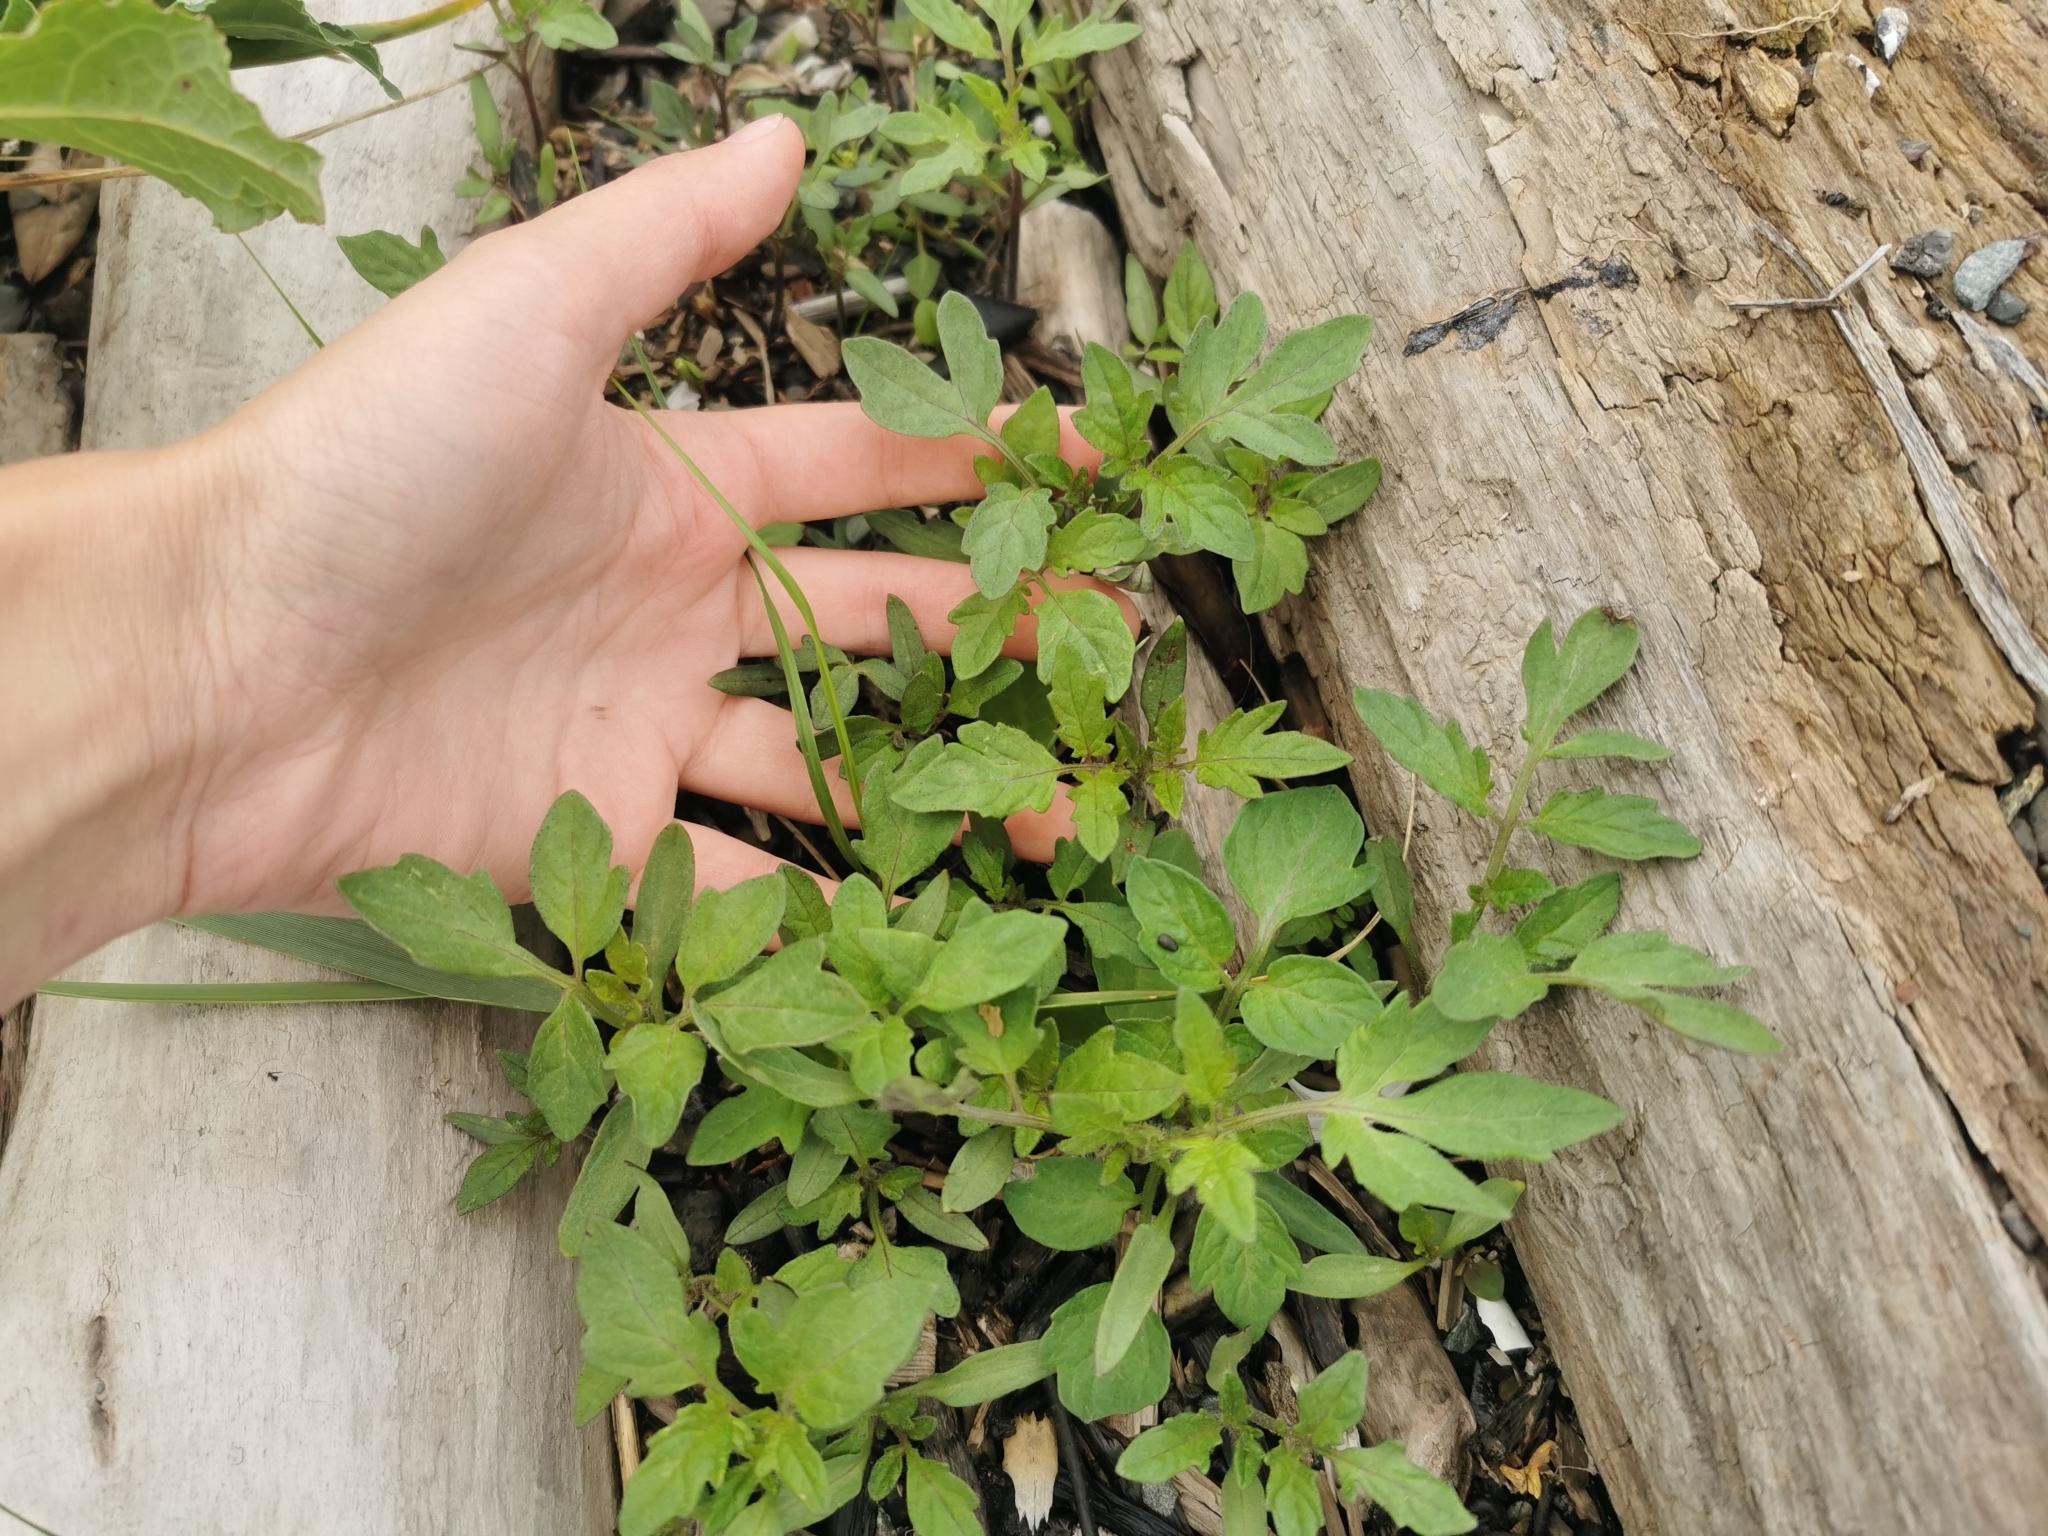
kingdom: Plantae
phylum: Tracheophyta
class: Magnoliopsida
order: Solanales
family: Solanaceae
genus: Solanum
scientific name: Solanum lycopersicum
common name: Garden tomato
